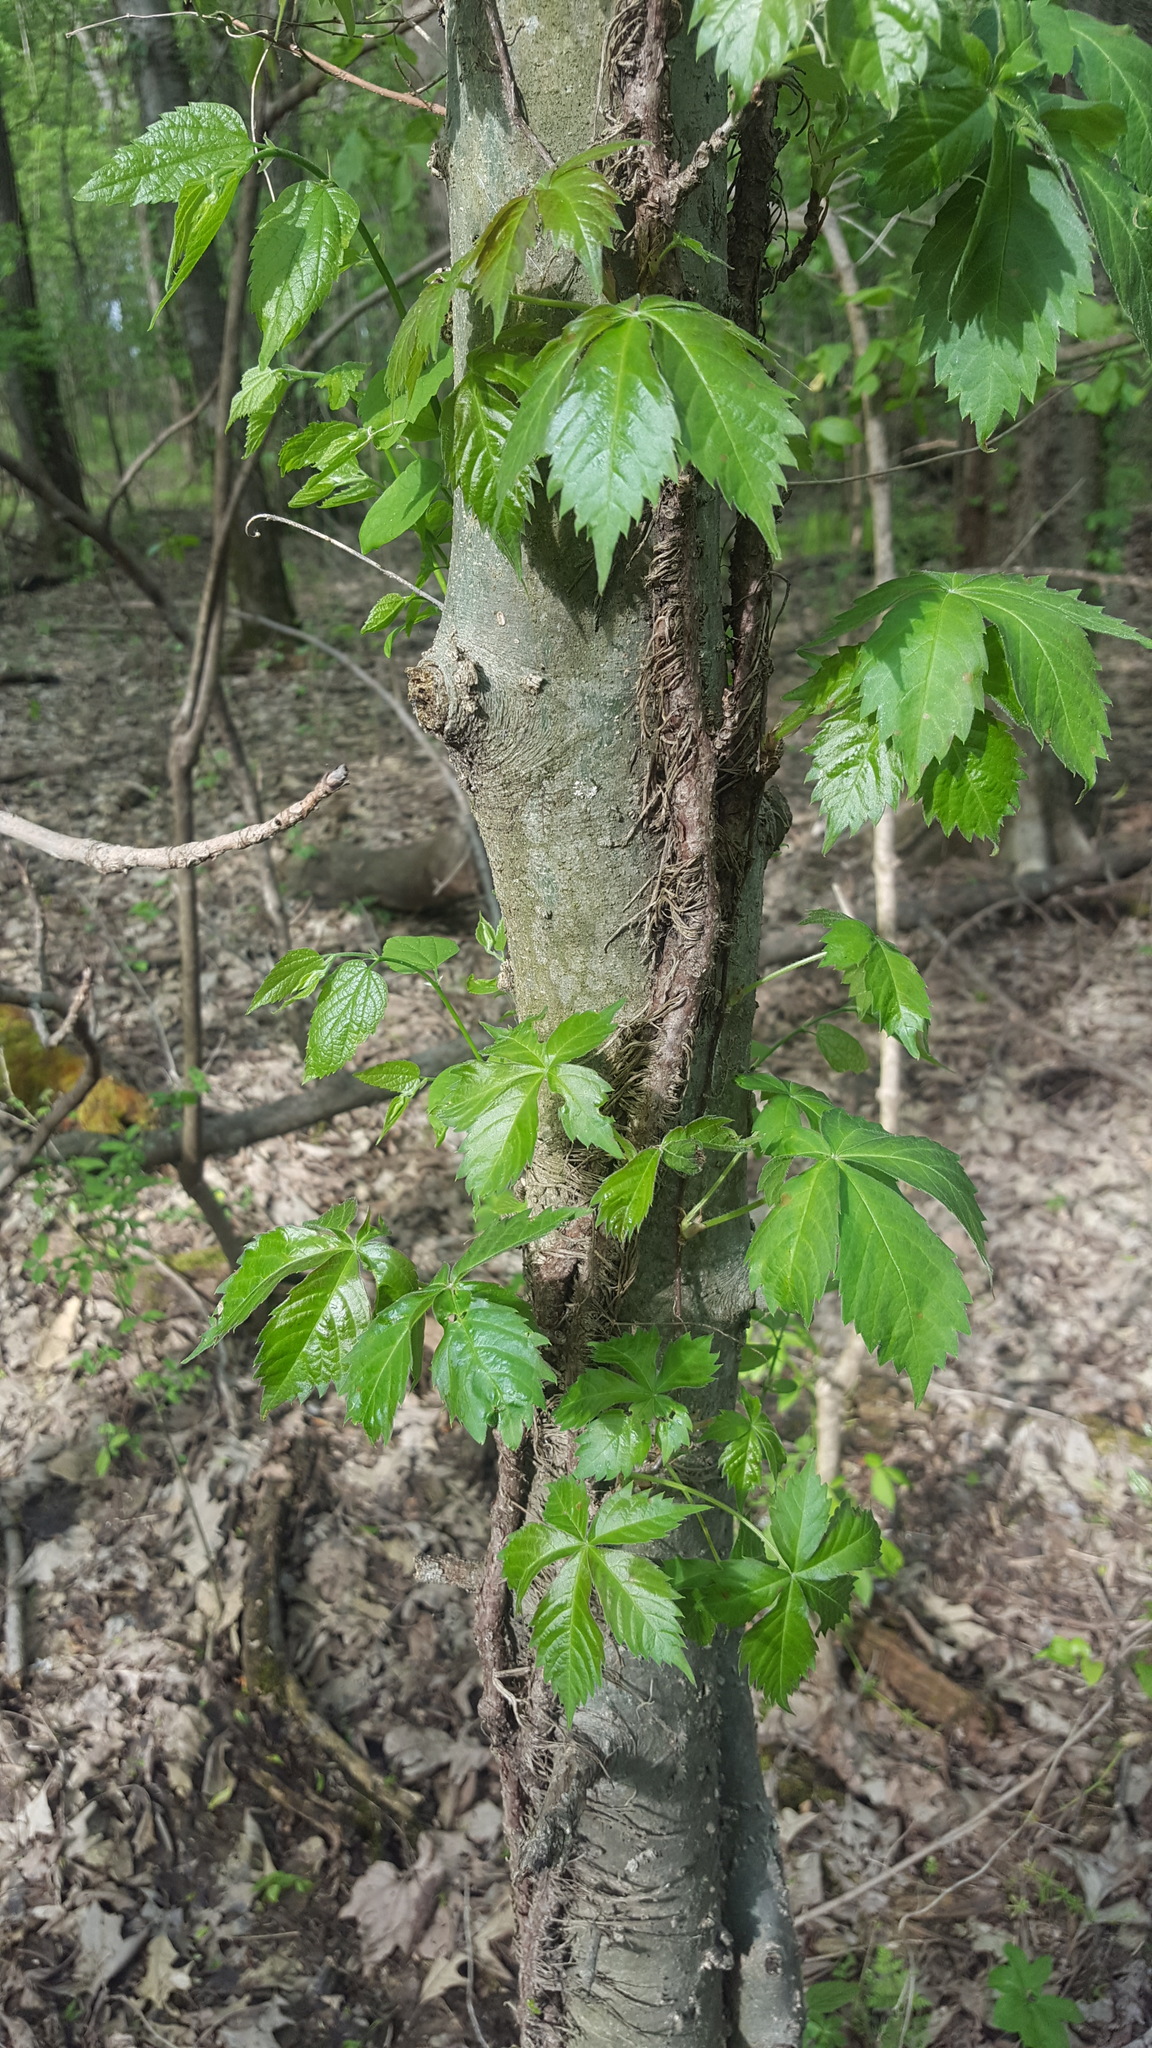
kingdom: Plantae
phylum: Tracheophyta
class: Magnoliopsida
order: Vitales
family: Vitaceae
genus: Parthenocissus
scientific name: Parthenocissus quinquefolia
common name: Virginia-creeper
